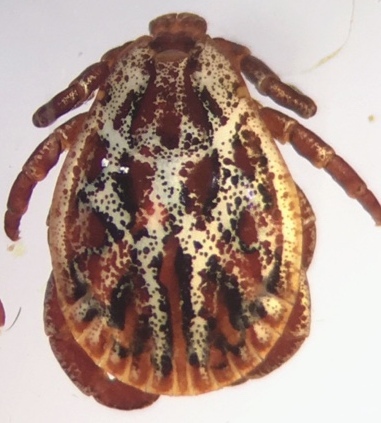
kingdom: Animalia
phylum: Arthropoda
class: Arachnida
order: Ixodida
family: Ixodidae
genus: Dermacentor
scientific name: Dermacentor reticulatus
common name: Ornate cow tick
